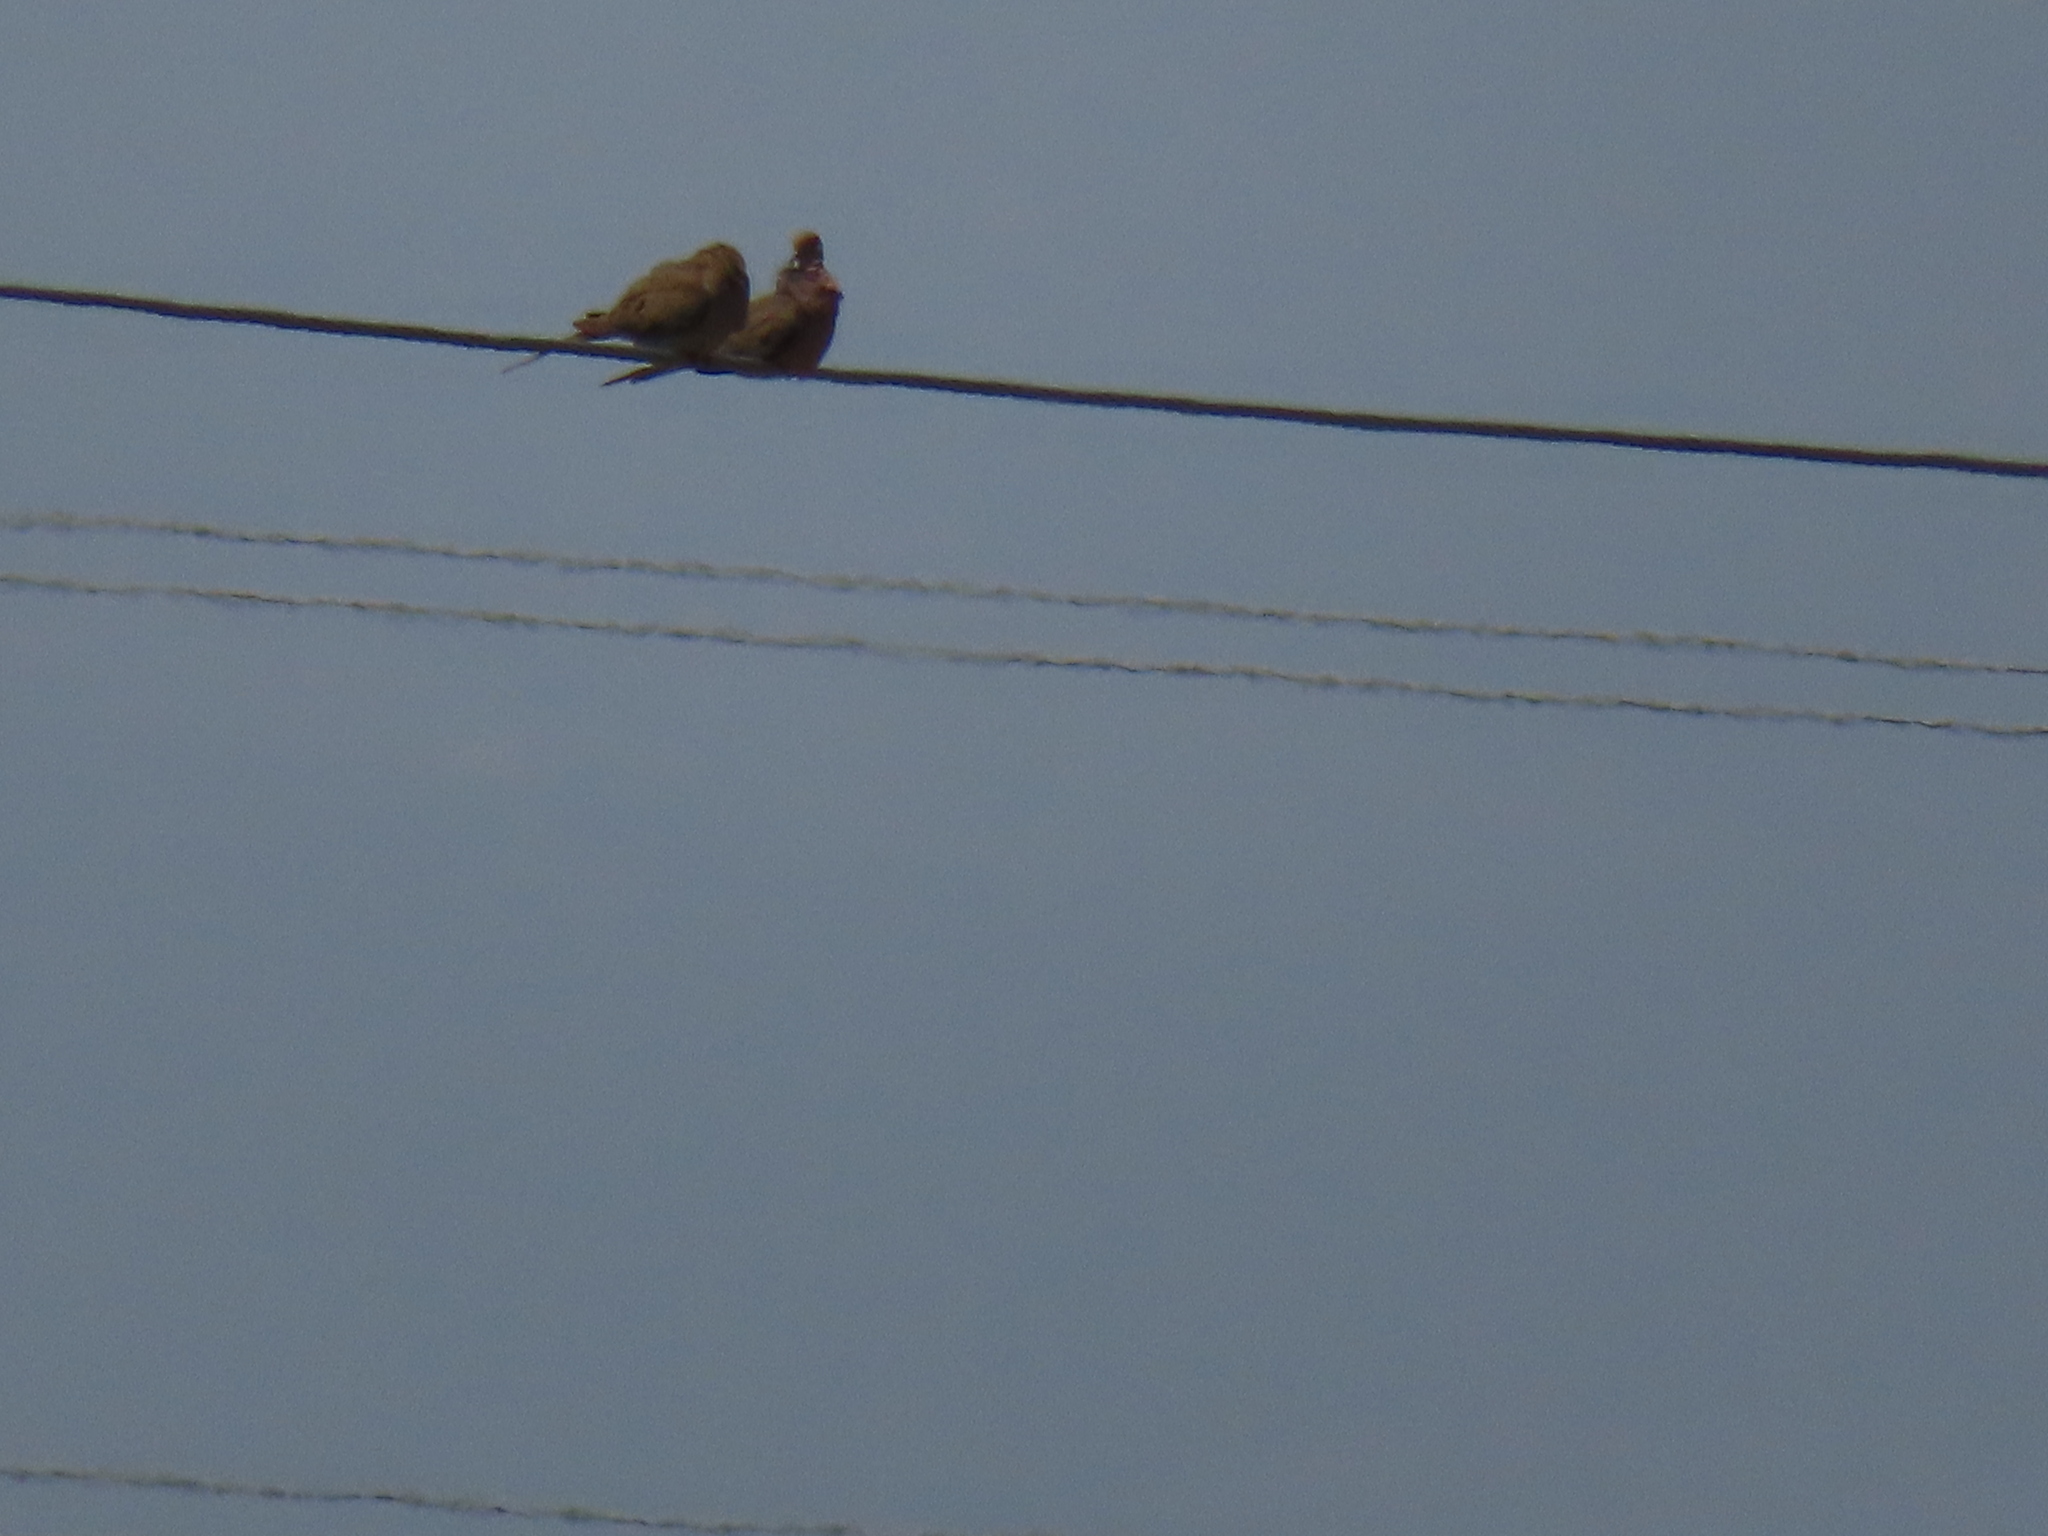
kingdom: Animalia
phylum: Chordata
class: Aves
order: Columbiformes
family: Columbidae
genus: Zenaida
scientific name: Zenaida macroura
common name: Mourning dove
